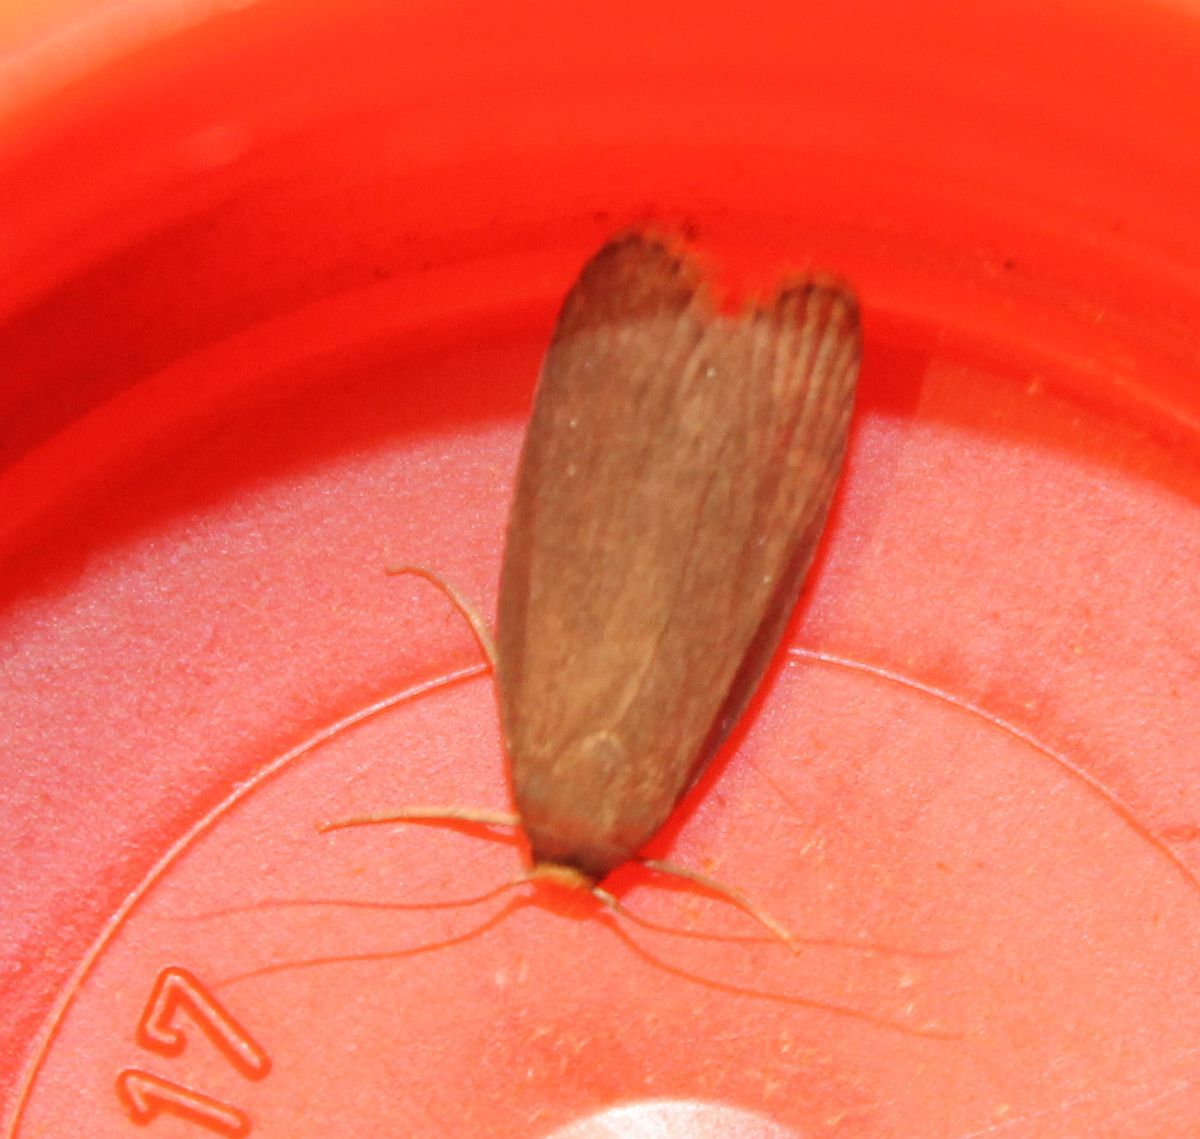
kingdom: Animalia
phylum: Arthropoda
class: Insecta
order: Lepidoptera
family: Pyralidae
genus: Achroia
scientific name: Achroia grisella
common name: Lesser wax moth
